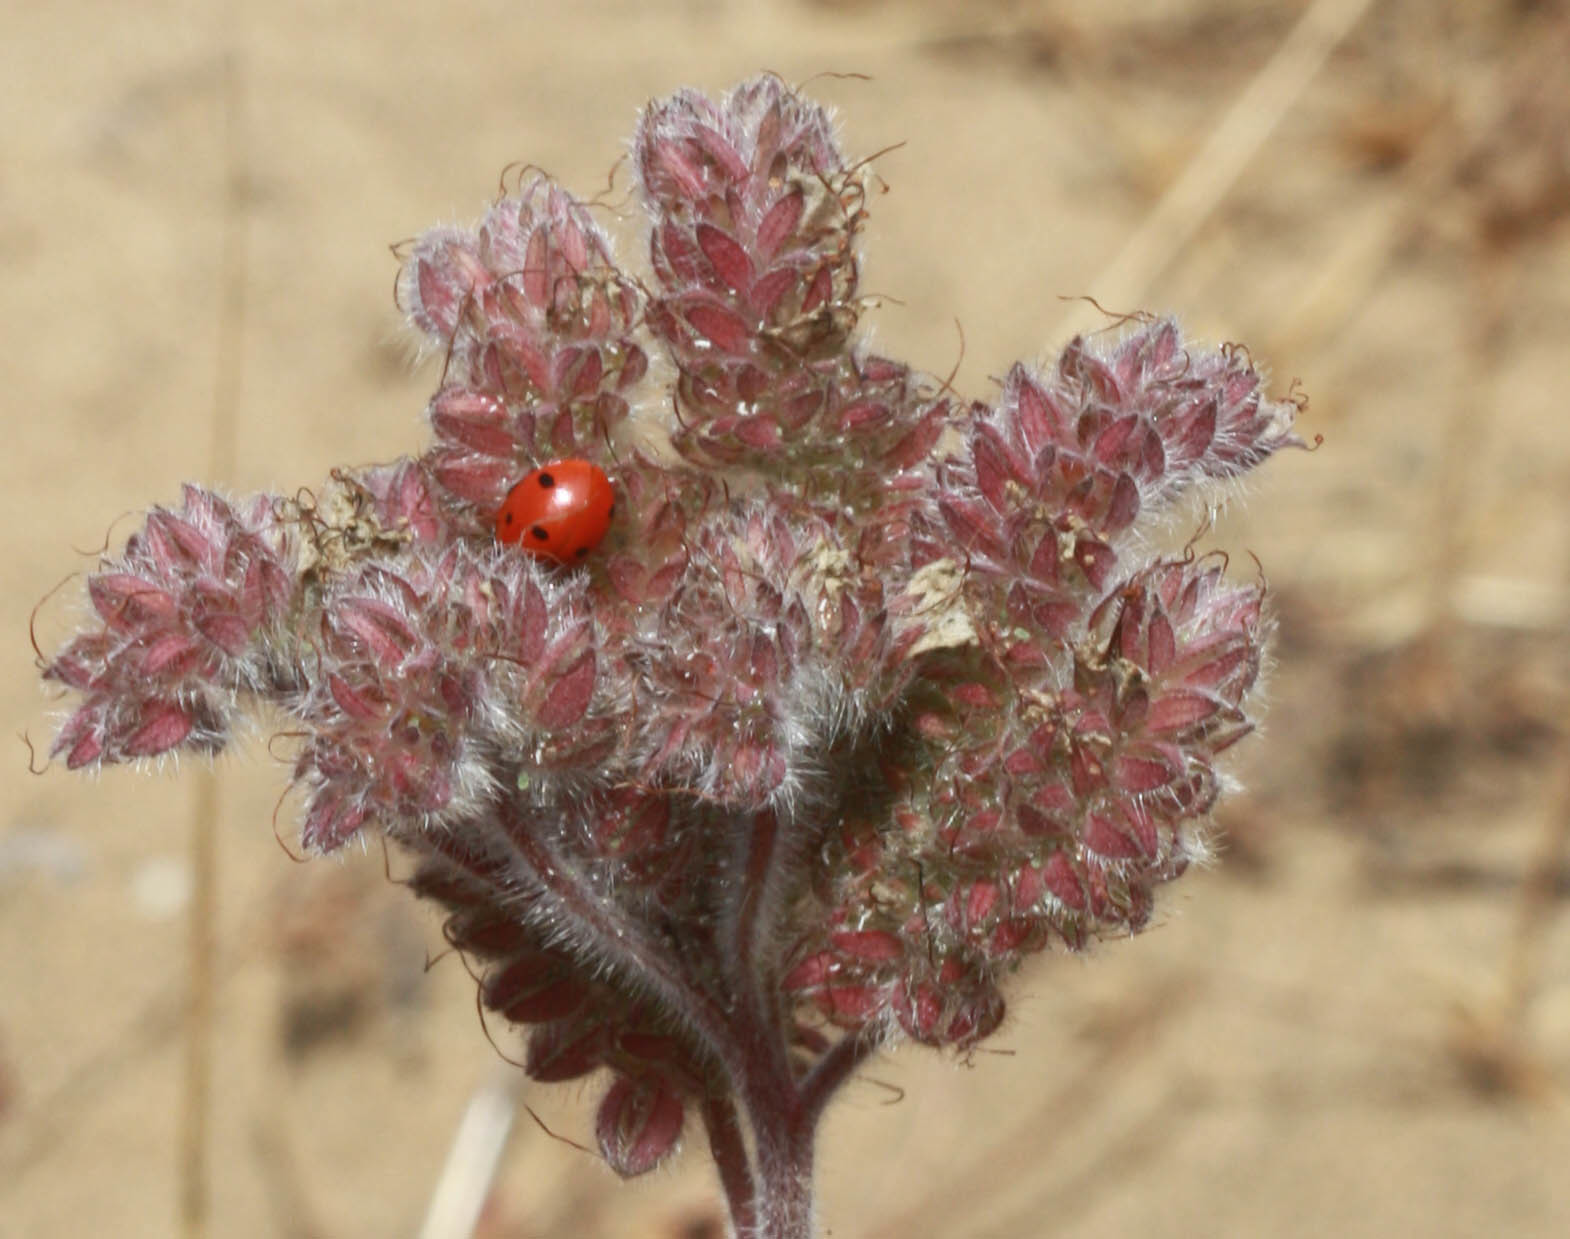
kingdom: Animalia
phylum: Arthropoda
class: Insecta
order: Coleoptera
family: Coccinellidae
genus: Coccinella
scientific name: Coccinella septempunctata
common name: Sevenspotted lady beetle
